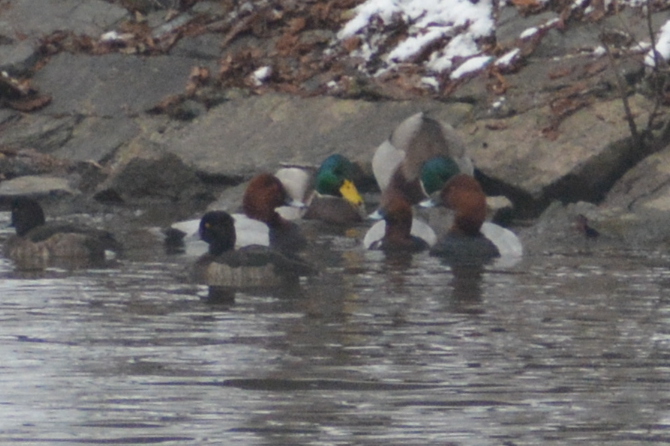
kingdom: Animalia
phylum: Chordata
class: Aves
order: Anseriformes
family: Anatidae
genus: Aythya
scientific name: Aythya ferina
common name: Common pochard
